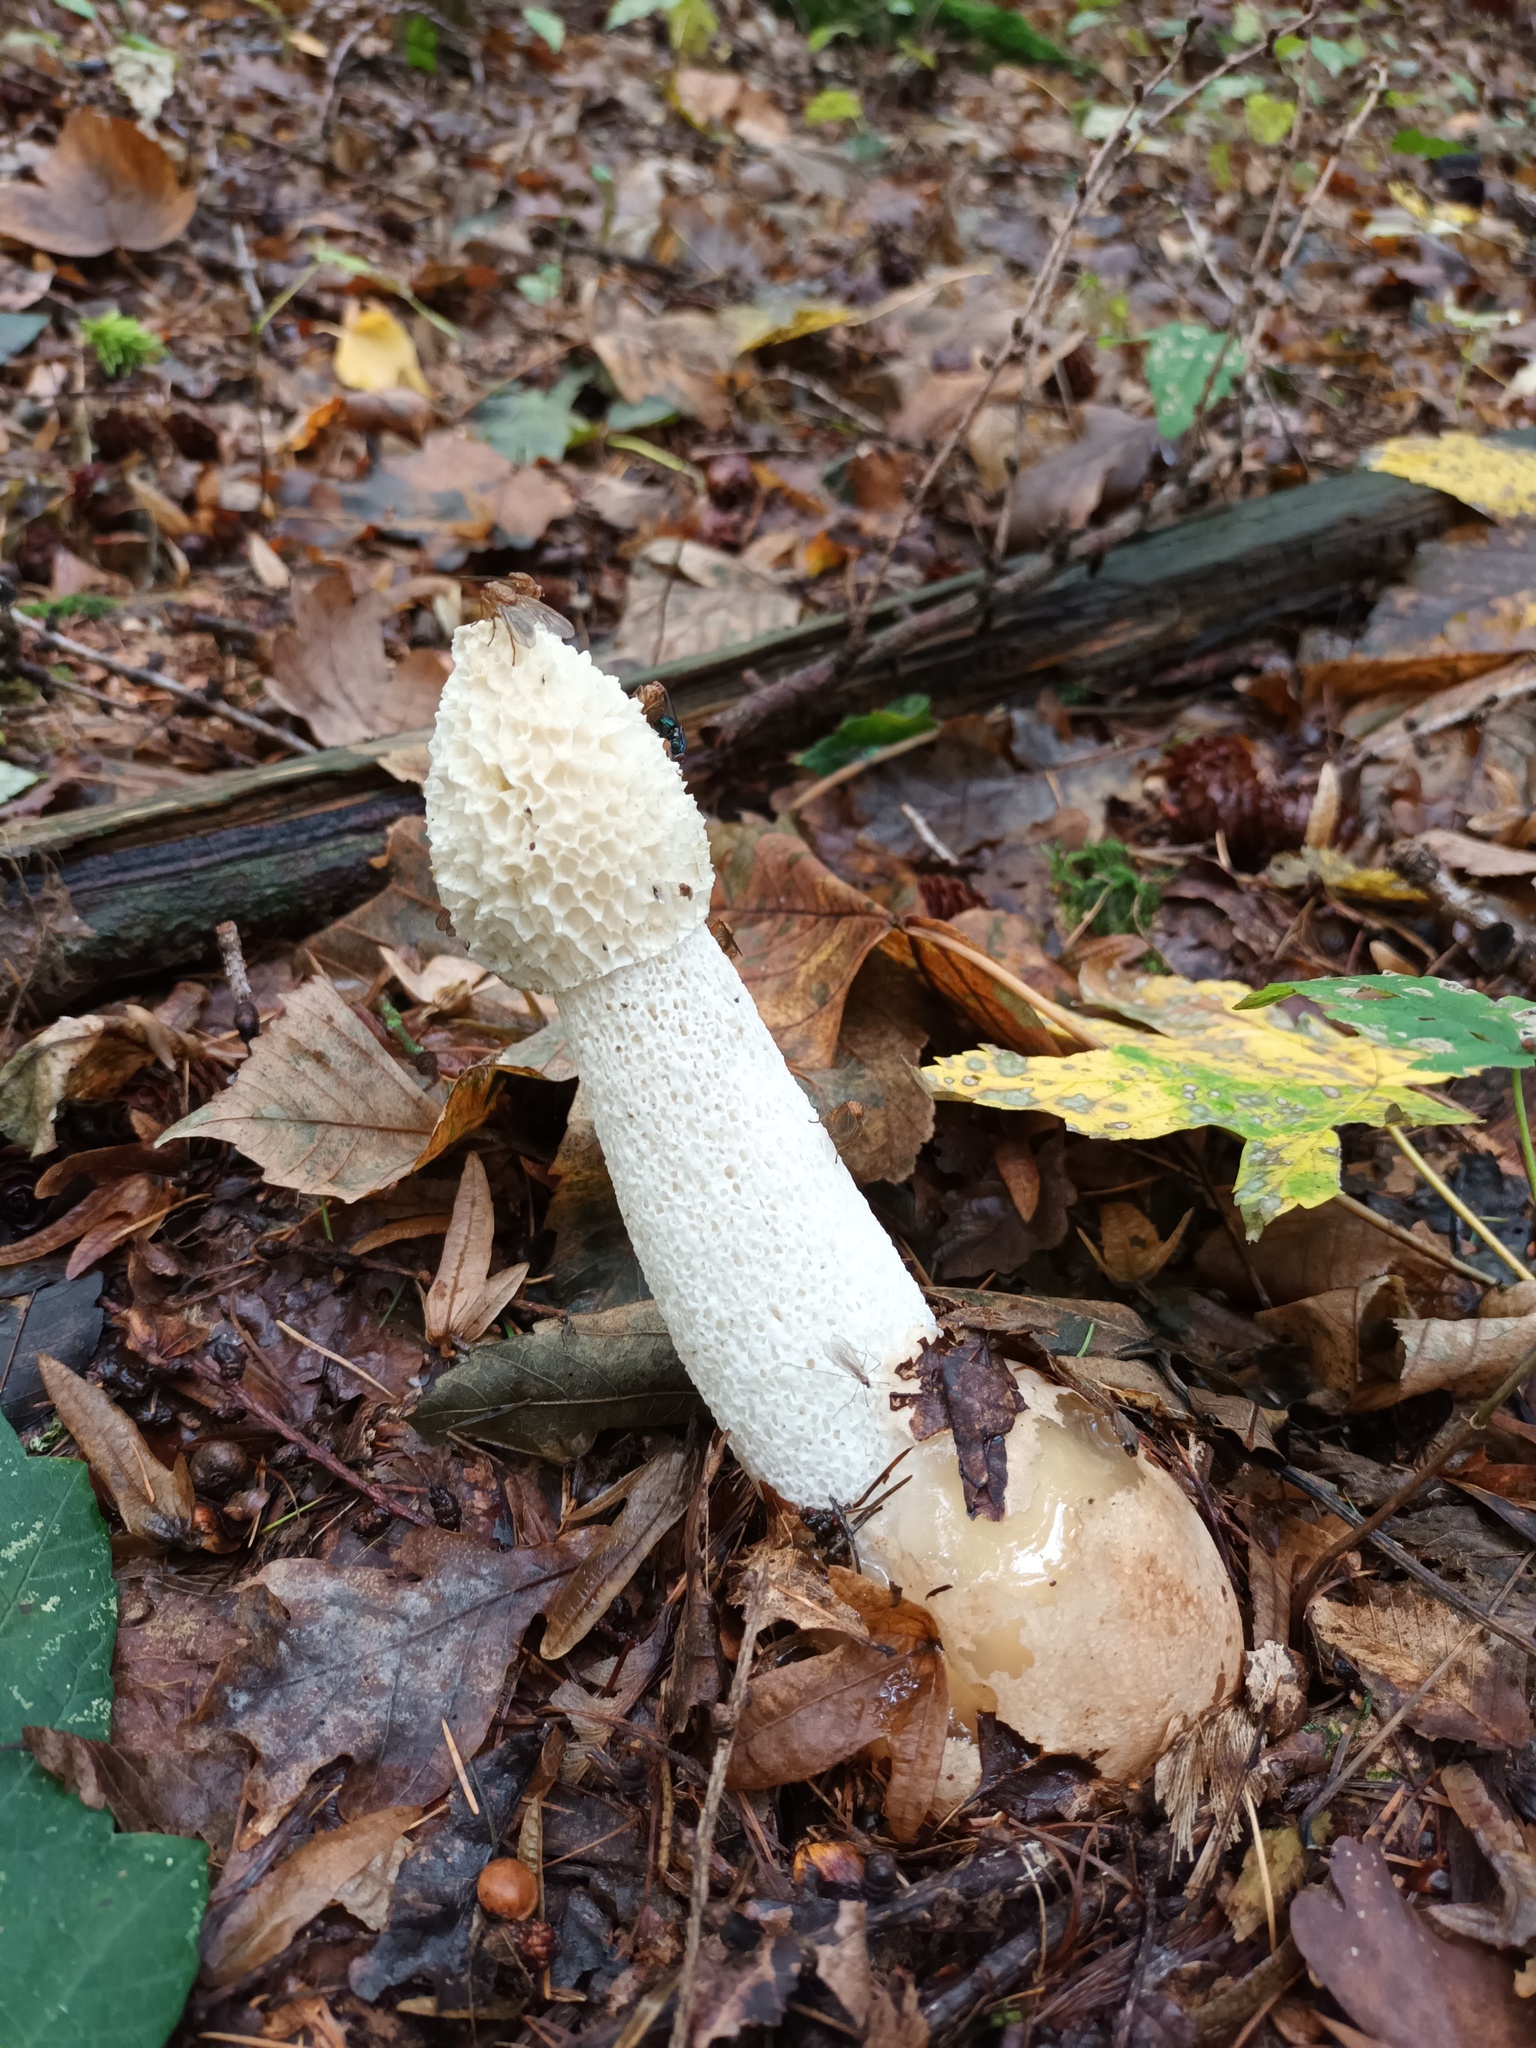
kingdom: Fungi
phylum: Basidiomycota
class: Agaricomycetes
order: Phallales
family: Phallaceae
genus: Phallus
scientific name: Phallus impudicus
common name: Common stinkhorn
